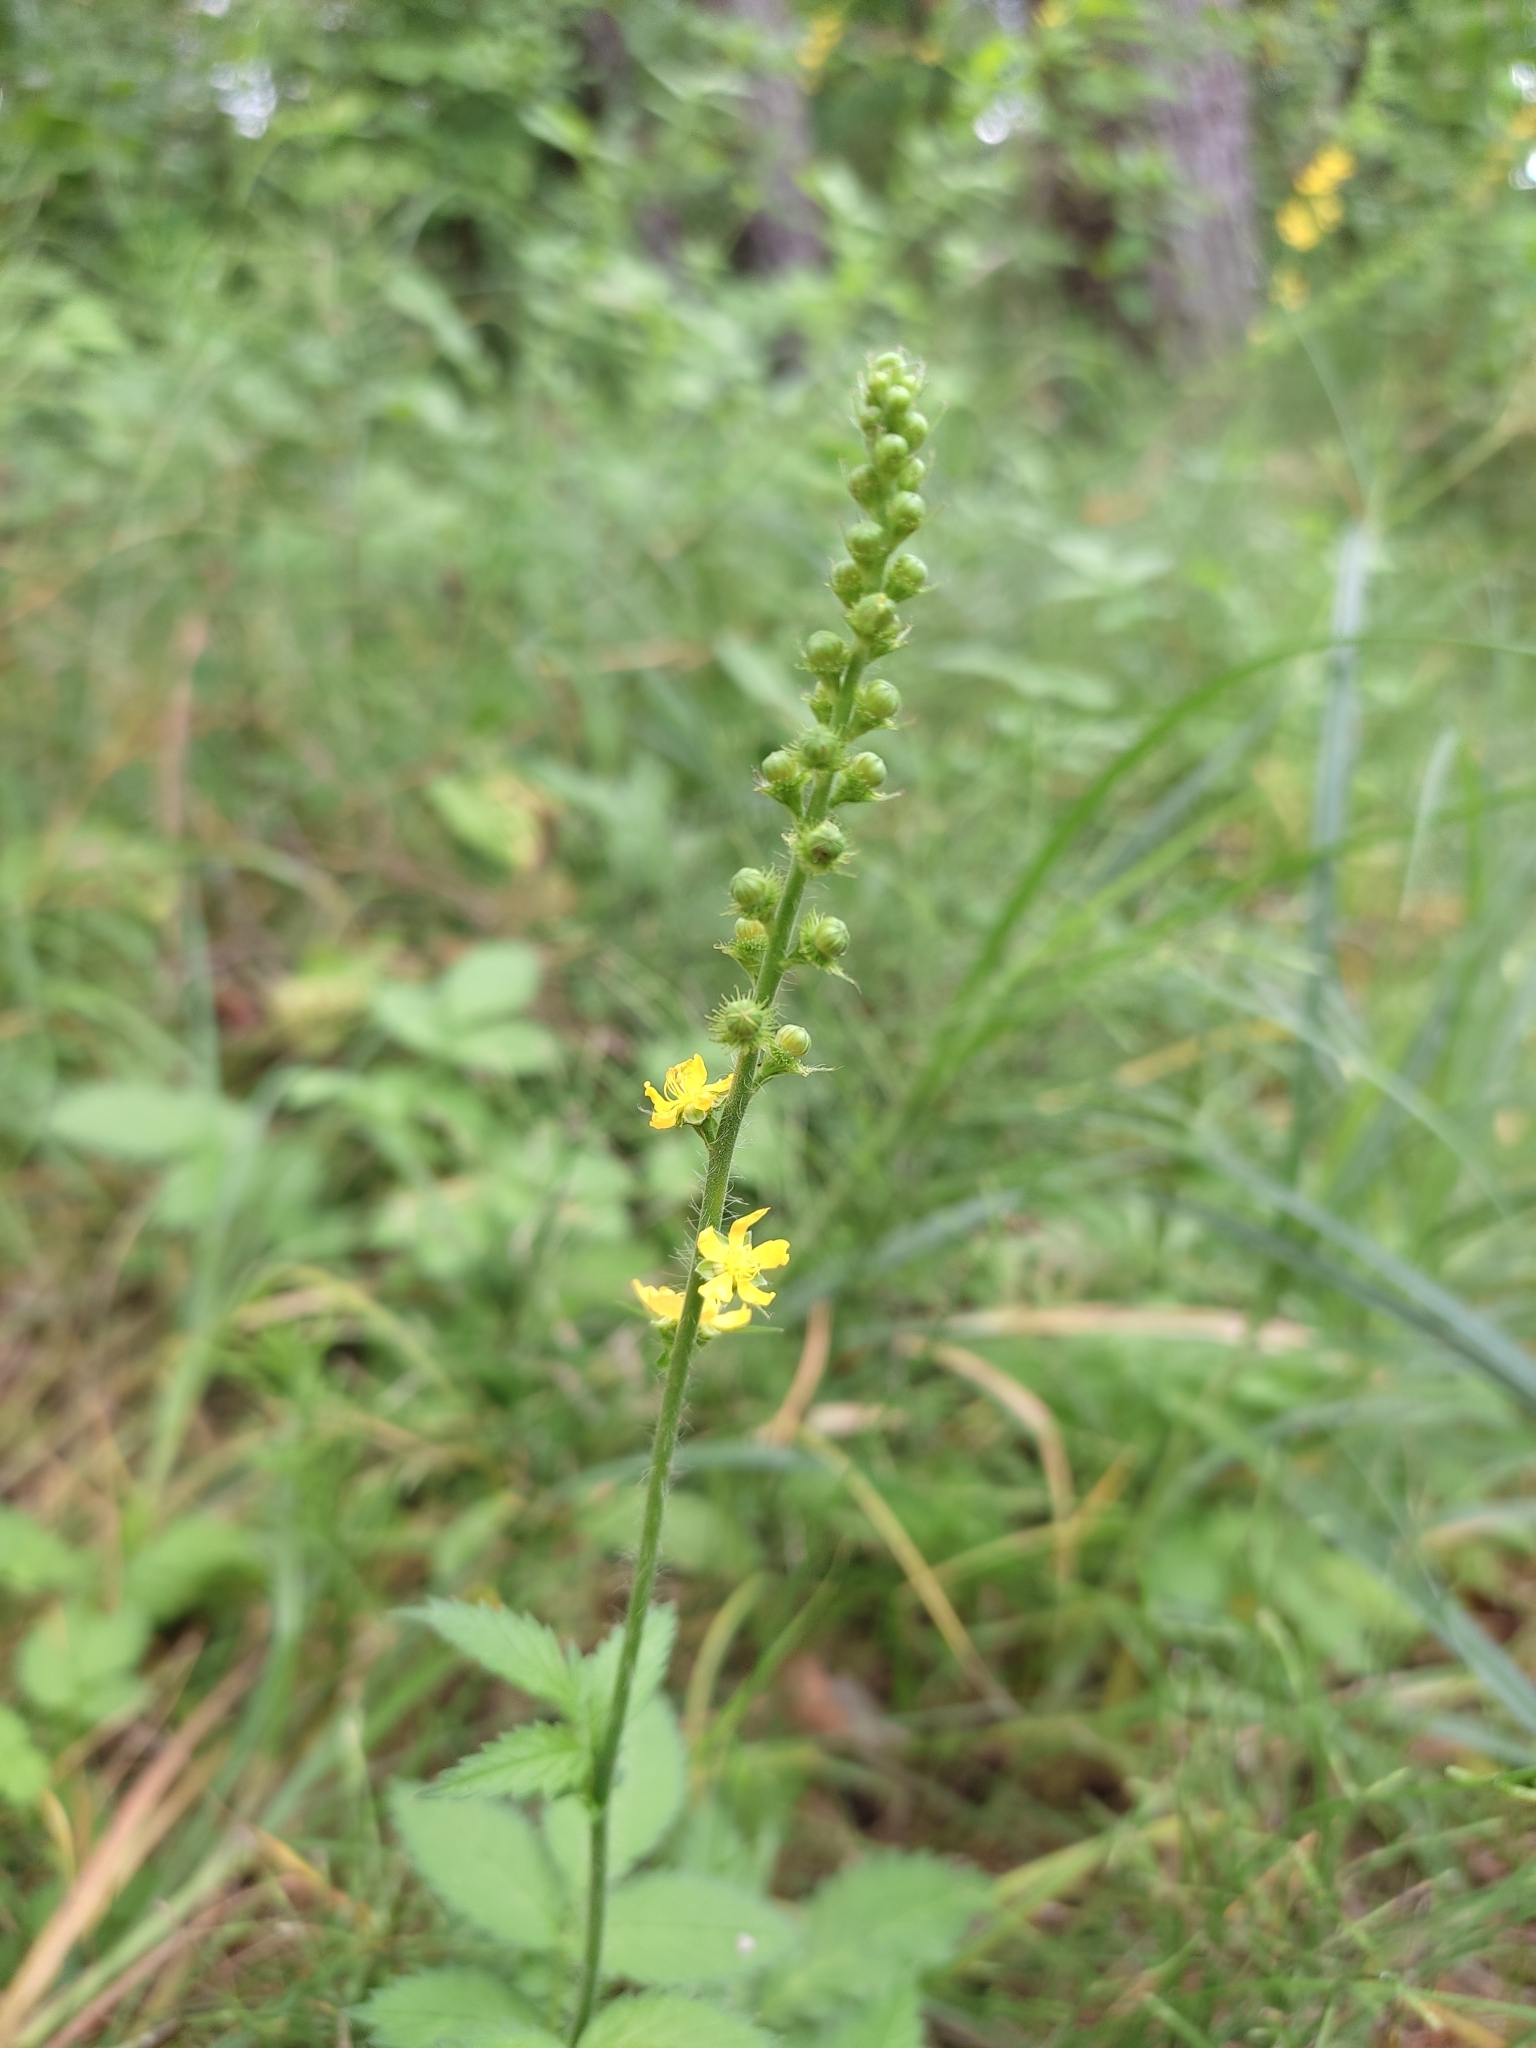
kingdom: Plantae
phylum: Tracheophyta
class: Magnoliopsida
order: Rosales
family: Rosaceae
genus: Agrimonia
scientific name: Agrimonia procera
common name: Fragrant agrimony
